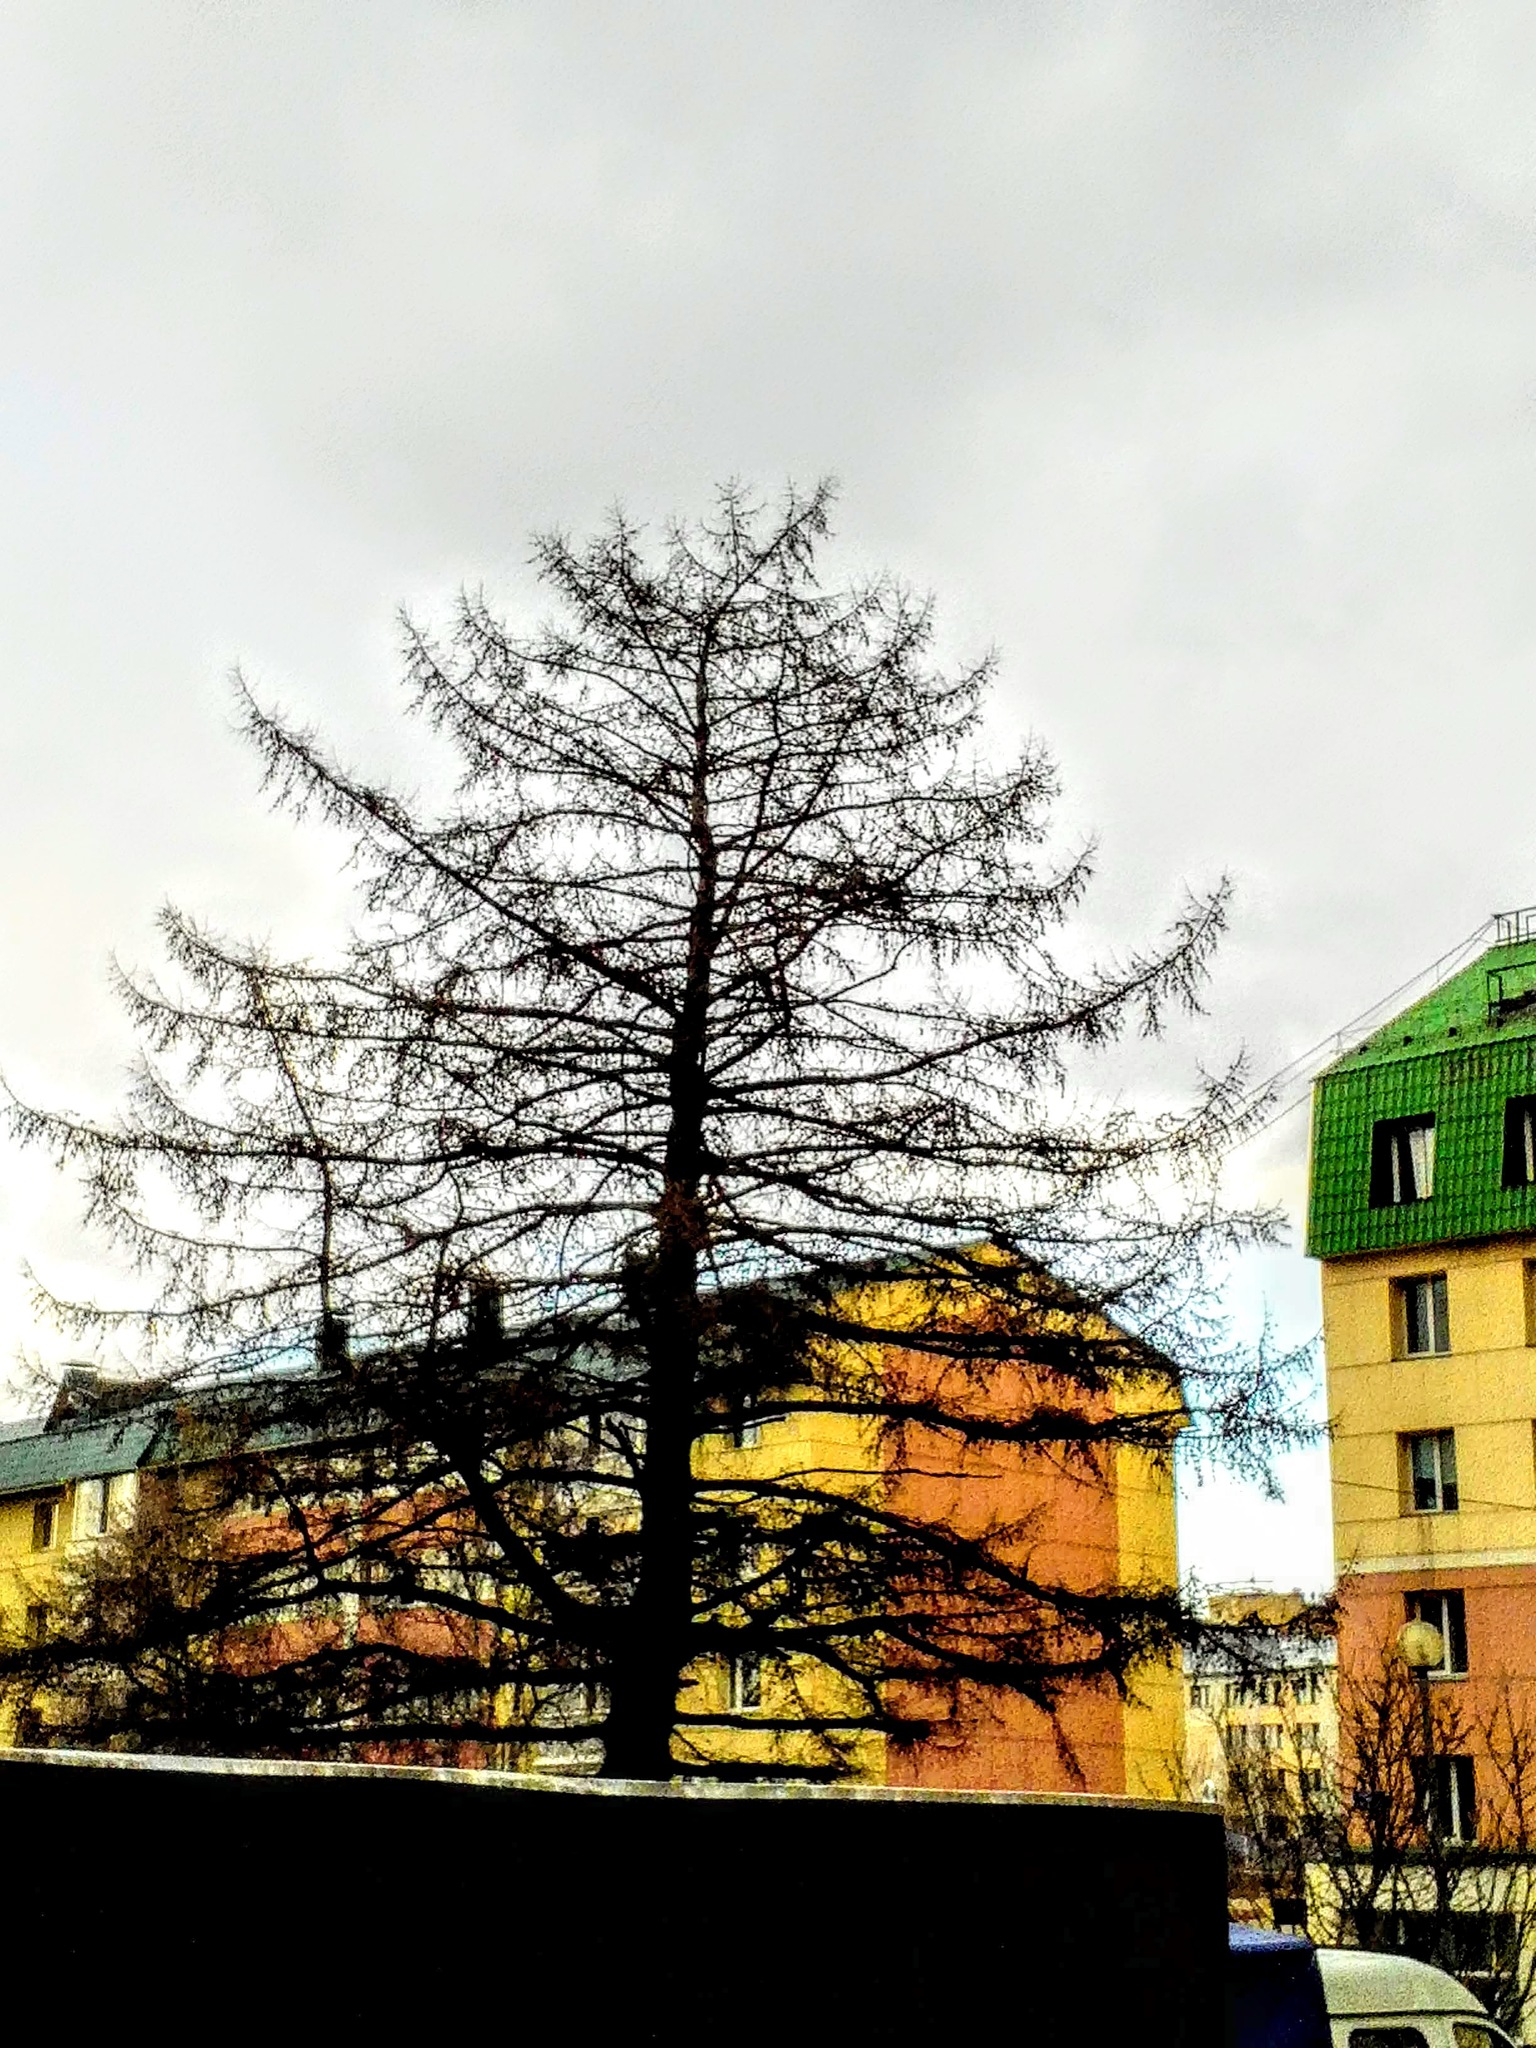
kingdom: Plantae
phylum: Tracheophyta
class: Pinopsida
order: Pinales
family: Pinaceae
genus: Larix
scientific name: Larix sibirica
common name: Siberian larch
